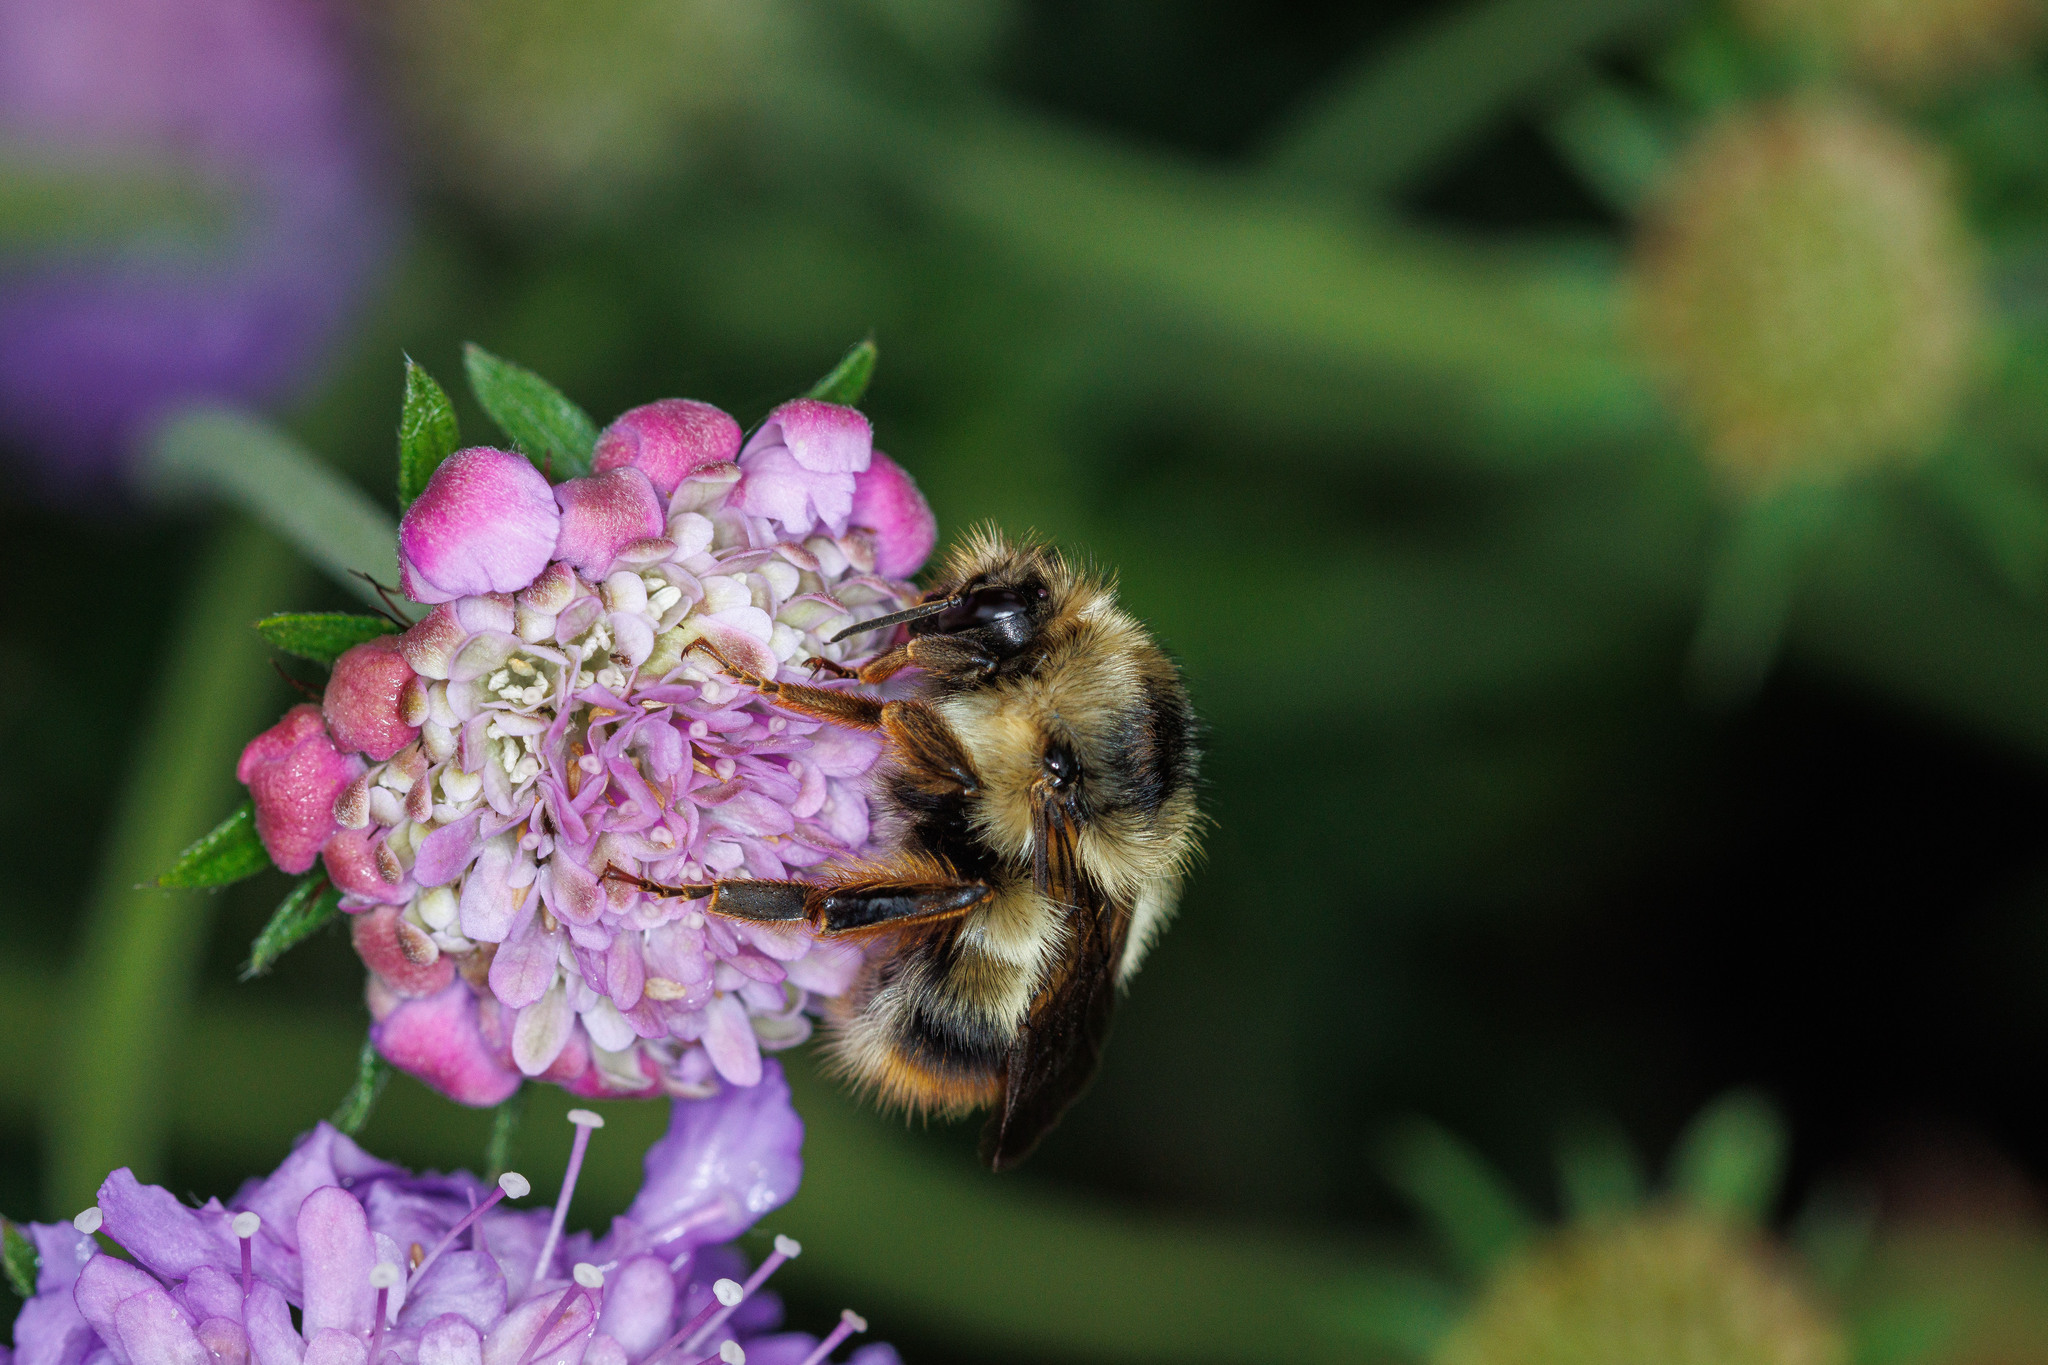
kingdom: Animalia
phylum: Arthropoda
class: Insecta
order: Hymenoptera
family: Apidae
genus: Bombus
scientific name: Bombus mixtus
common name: Fuzzy-horned bumble bee
